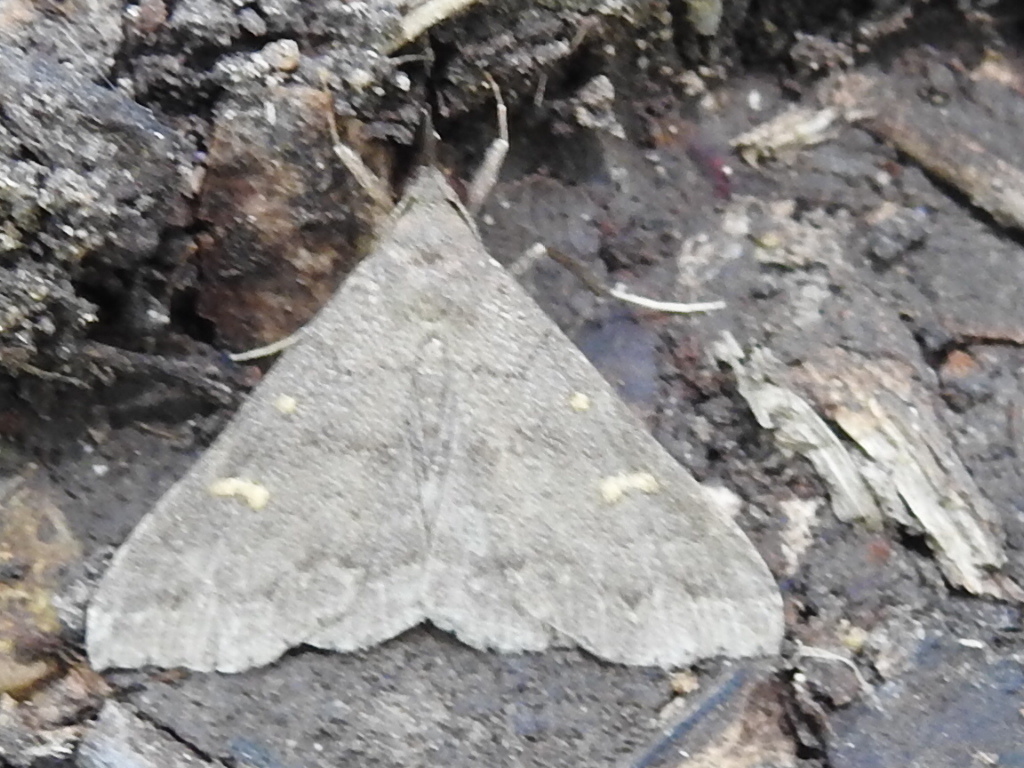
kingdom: Animalia
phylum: Arthropoda
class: Insecta
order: Lepidoptera
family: Erebidae
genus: Renia
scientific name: Renia adspergillus
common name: Speckled renia moth
